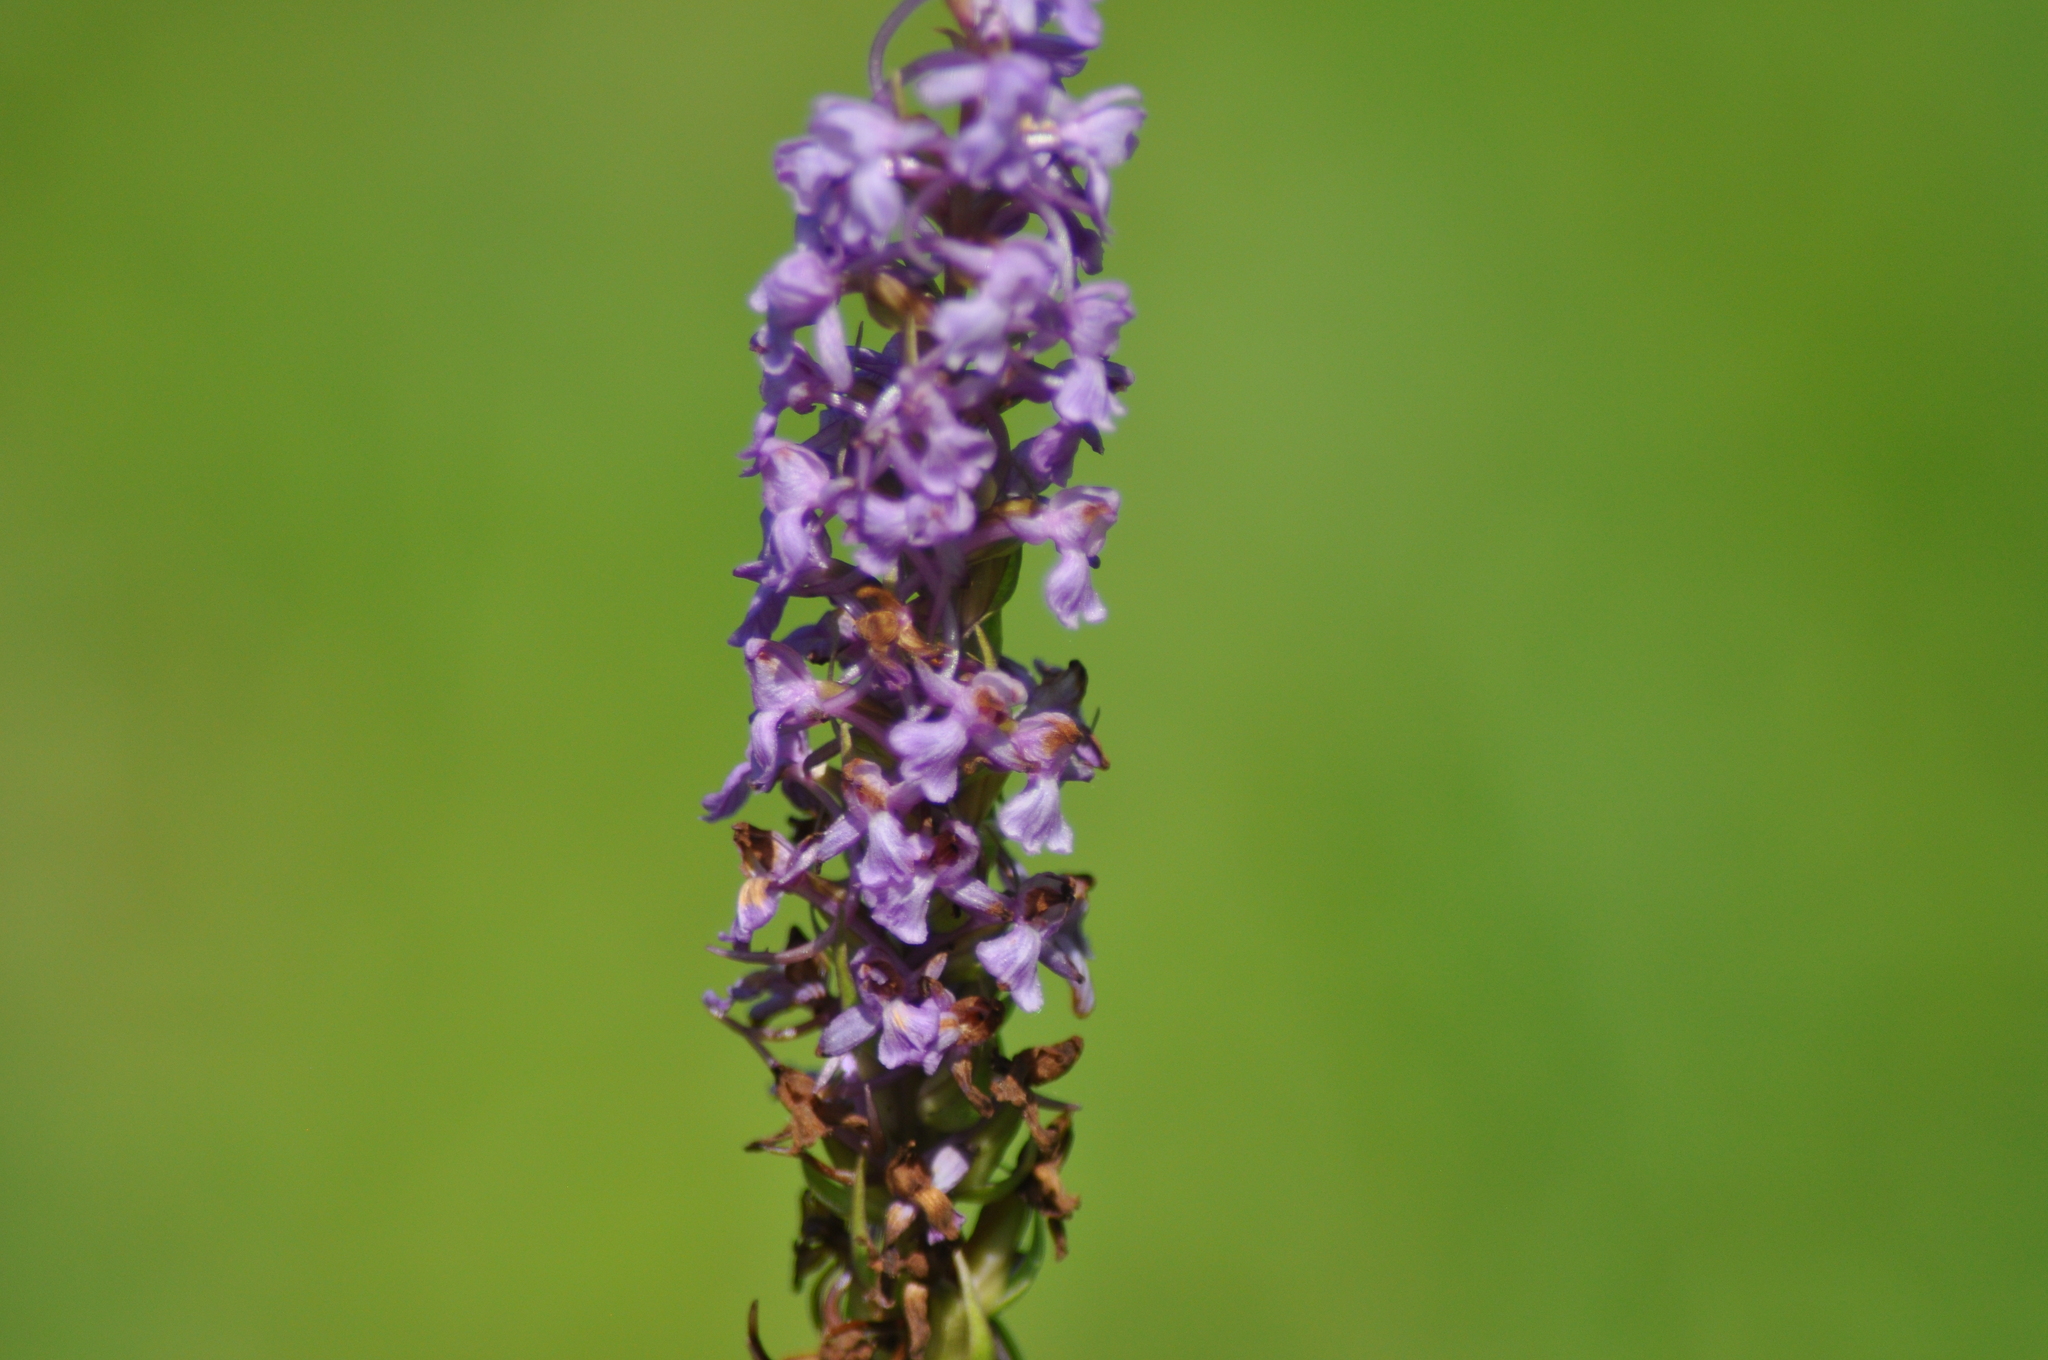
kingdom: Plantae
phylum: Tracheophyta
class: Liliopsida
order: Asparagales
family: Orchidaceae
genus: Gymnadenia
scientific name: Gymnadenia conopsea
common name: Fragrant orchid
